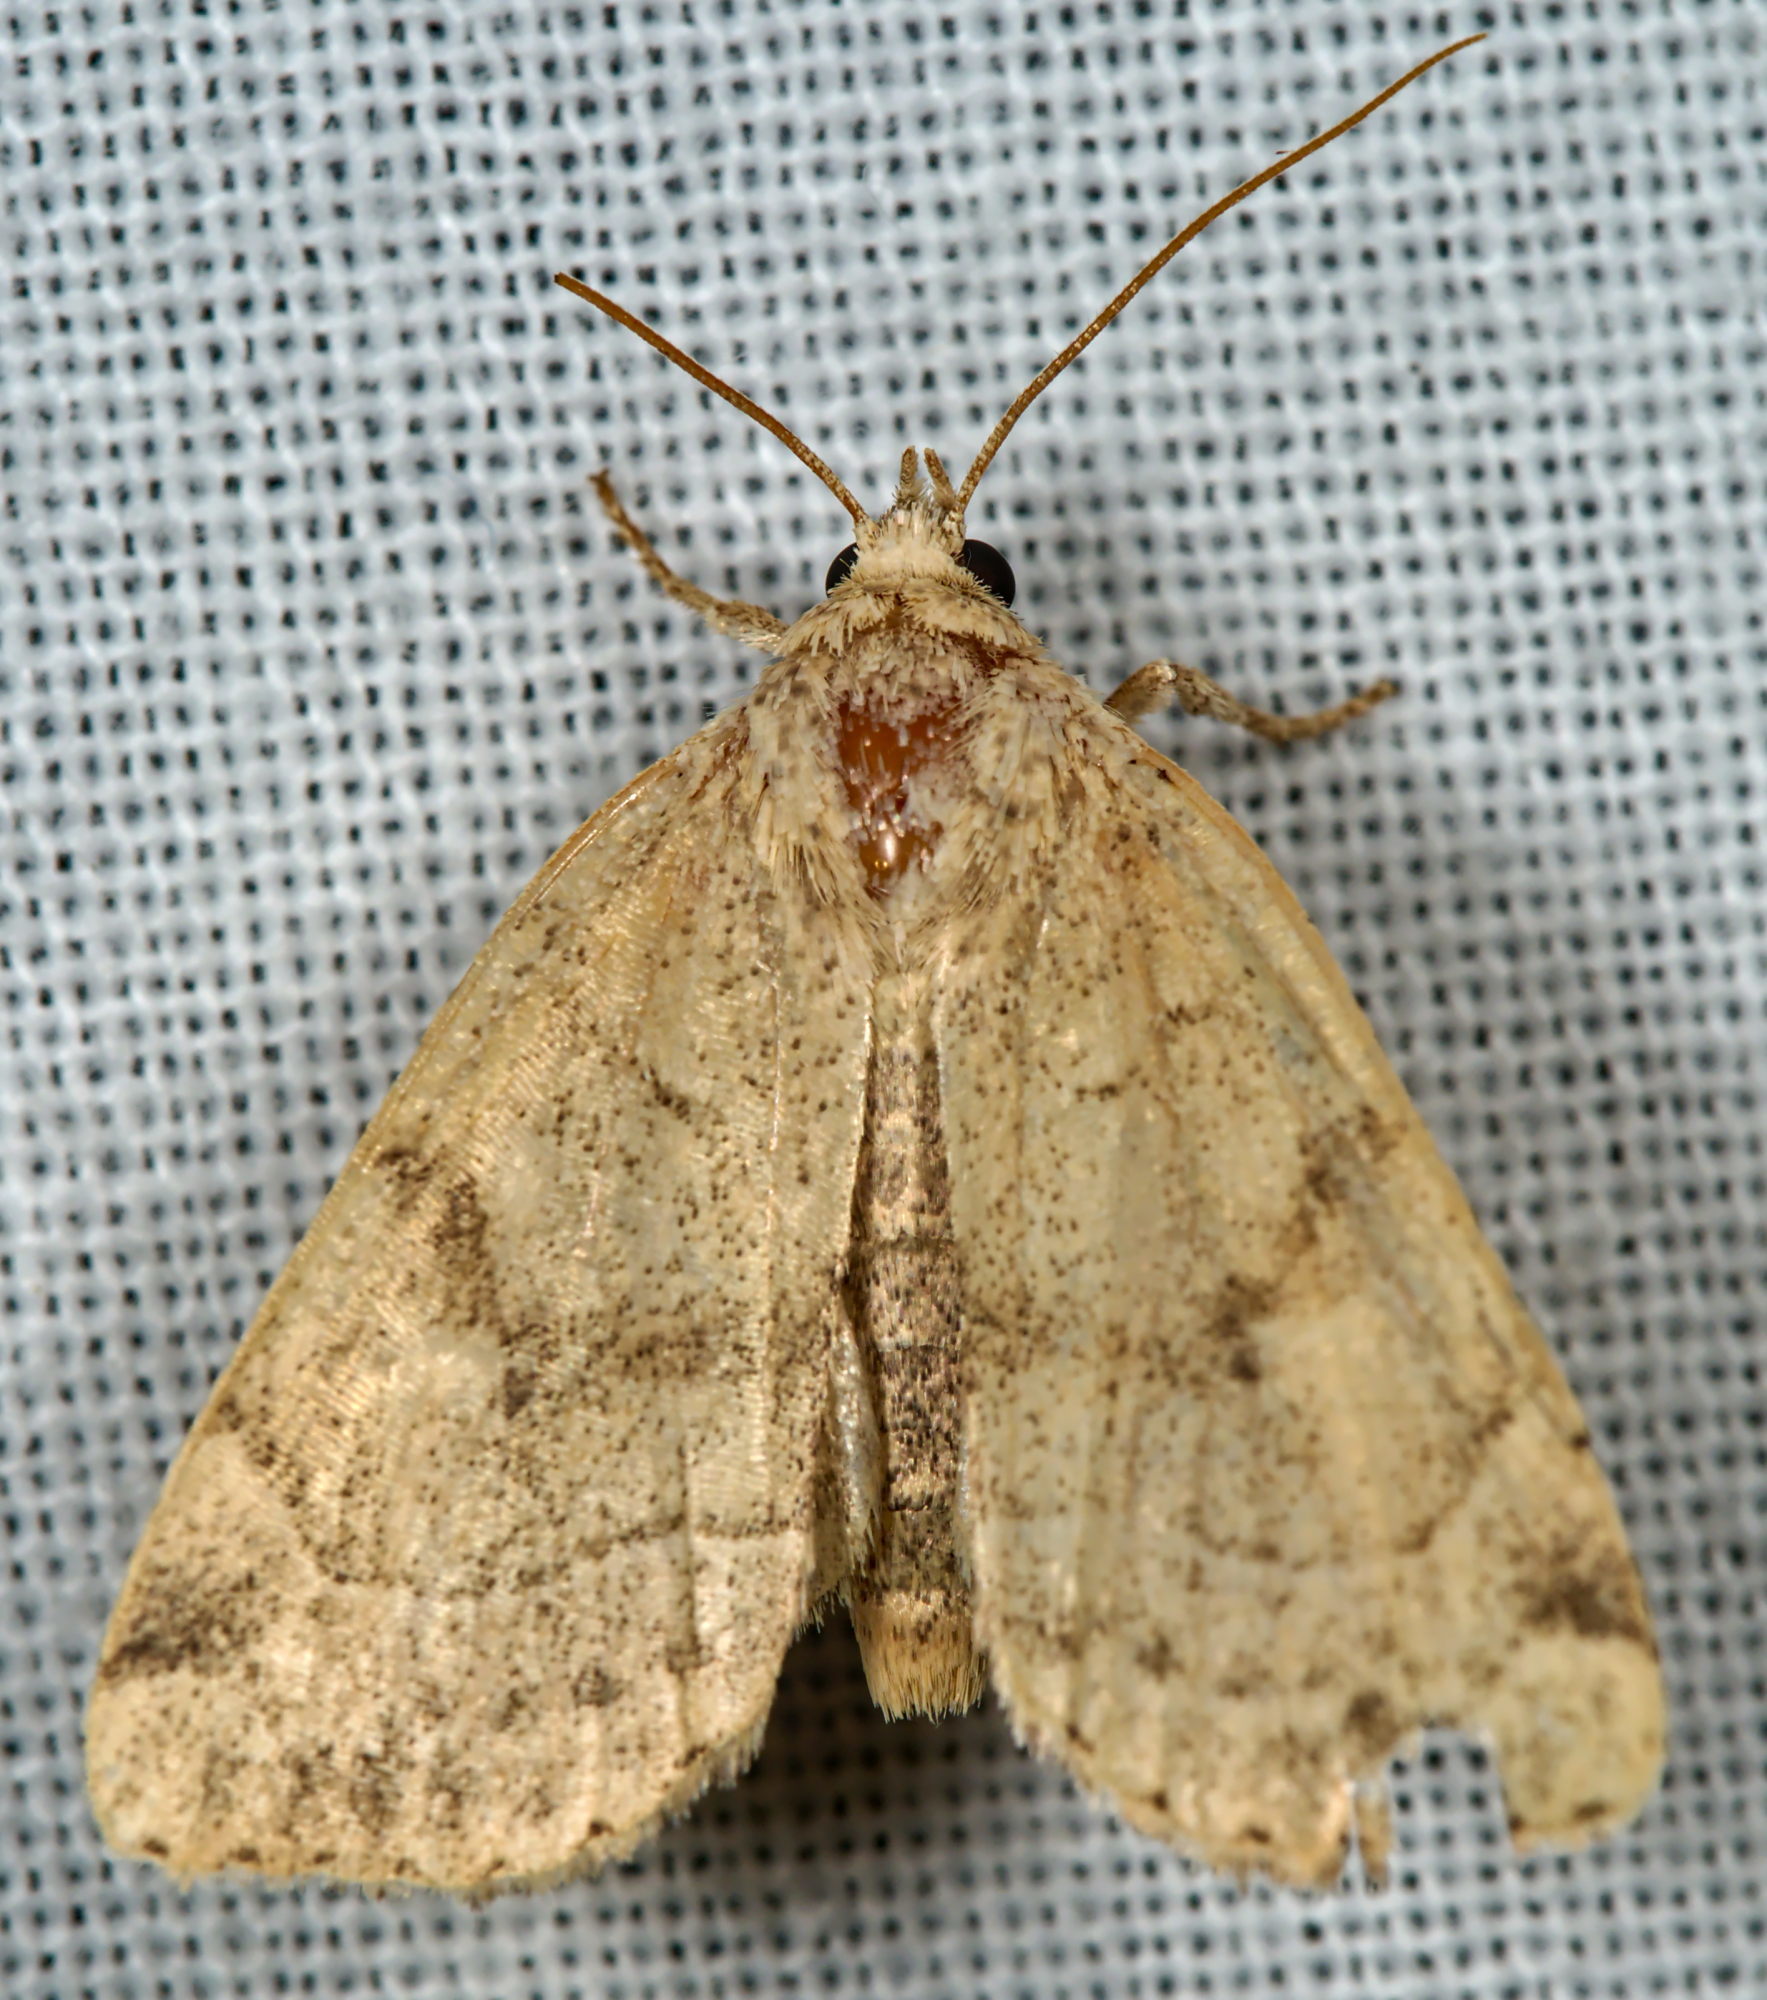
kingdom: Animalia
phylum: Arthropoda
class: Insecta
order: Lepidoptera
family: Noctuidae
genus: Cosmia
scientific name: Cosmia trapezina
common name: Dun-bar
